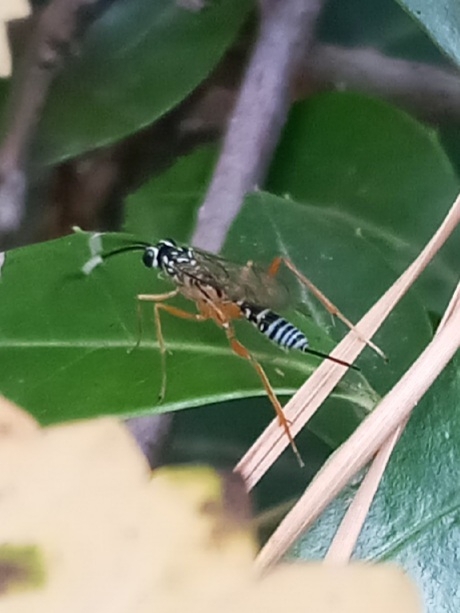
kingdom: Animalia
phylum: Arthropoda
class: Insecta
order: Hymenoptera
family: Ichneumonidae
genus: Polycyrtus
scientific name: Polycyrtus neglectus
